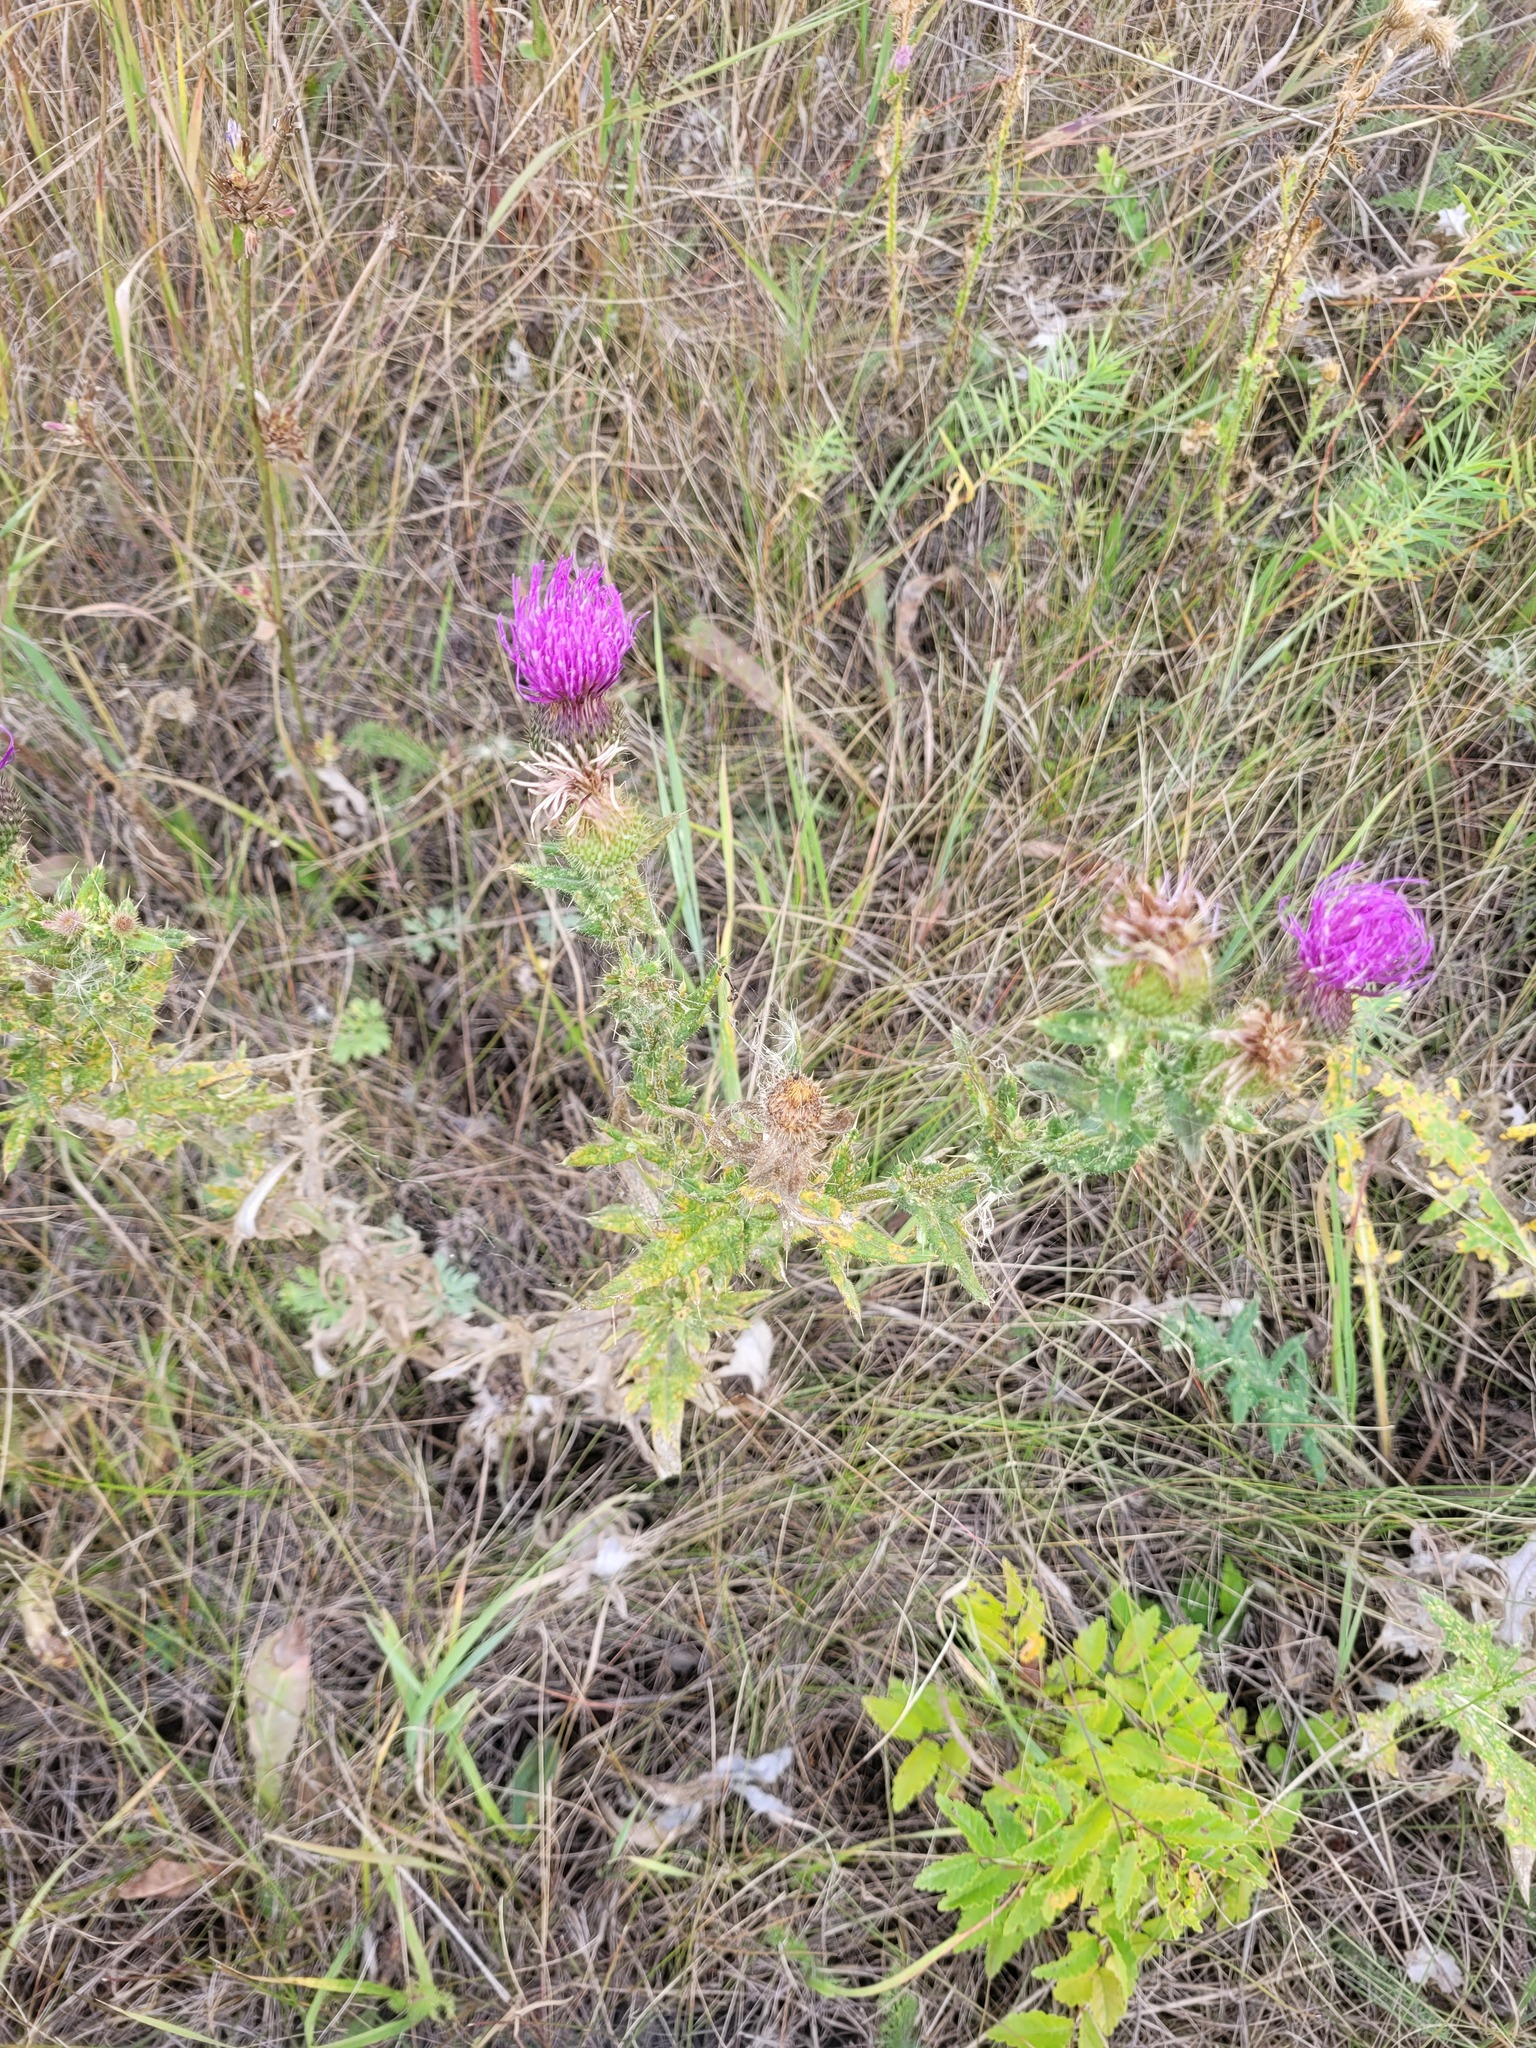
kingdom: Plantae
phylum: Tracheophyta
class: Magnoliopsida
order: Asterales
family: Asteraceae
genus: Cirsium
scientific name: Cirsium serrulatum
